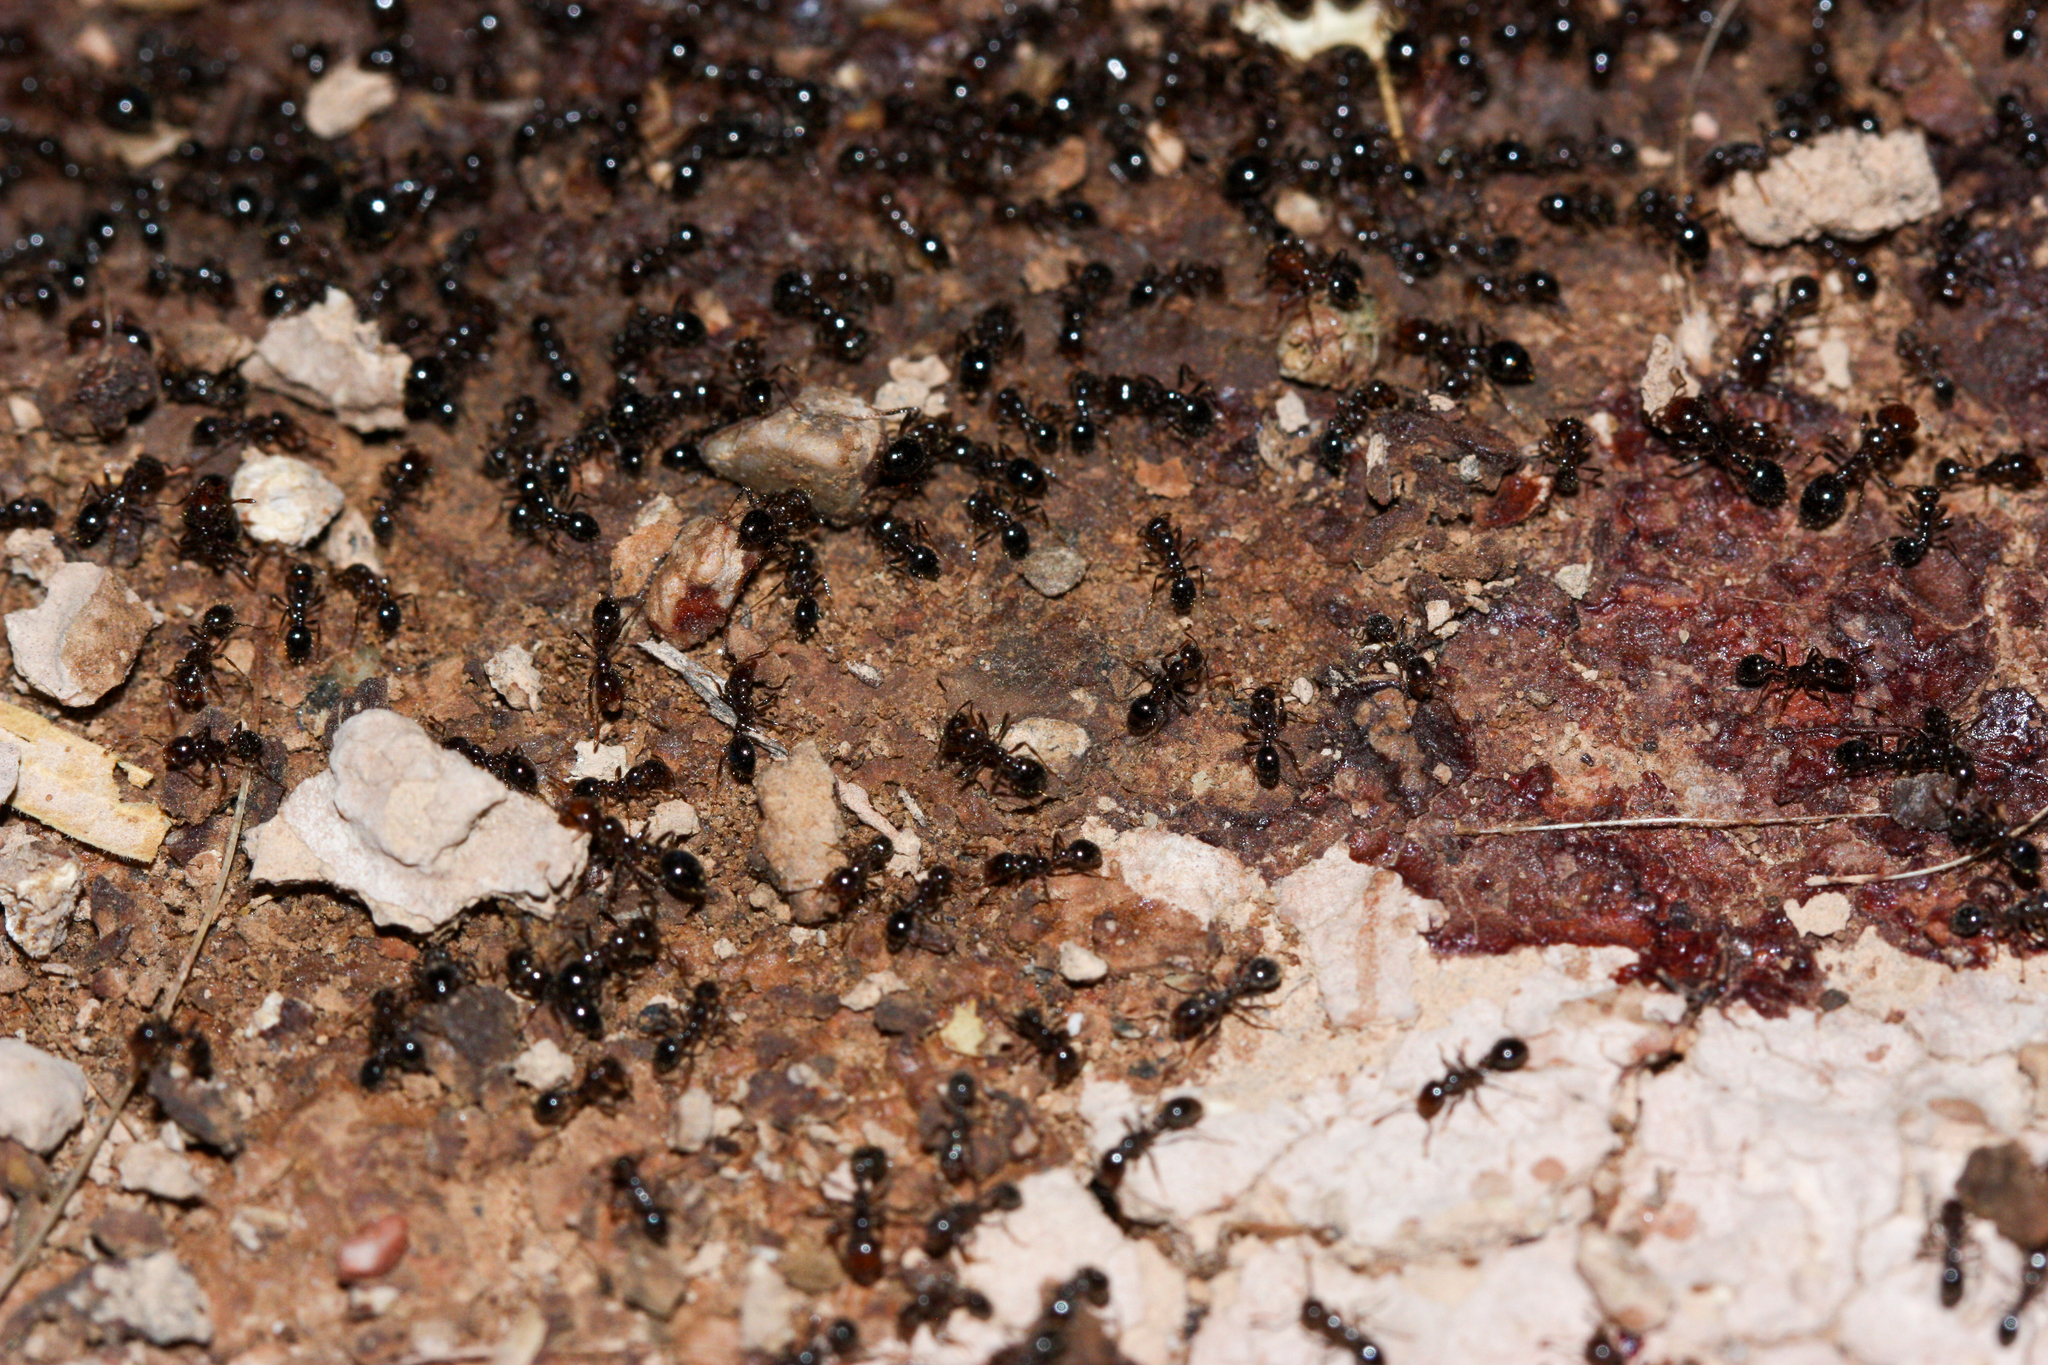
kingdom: Animalia
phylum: Arthropoda
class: Insecta
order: Hymenoptera
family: Formicidae
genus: Solenopsis
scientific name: Solenopsis xyloni
